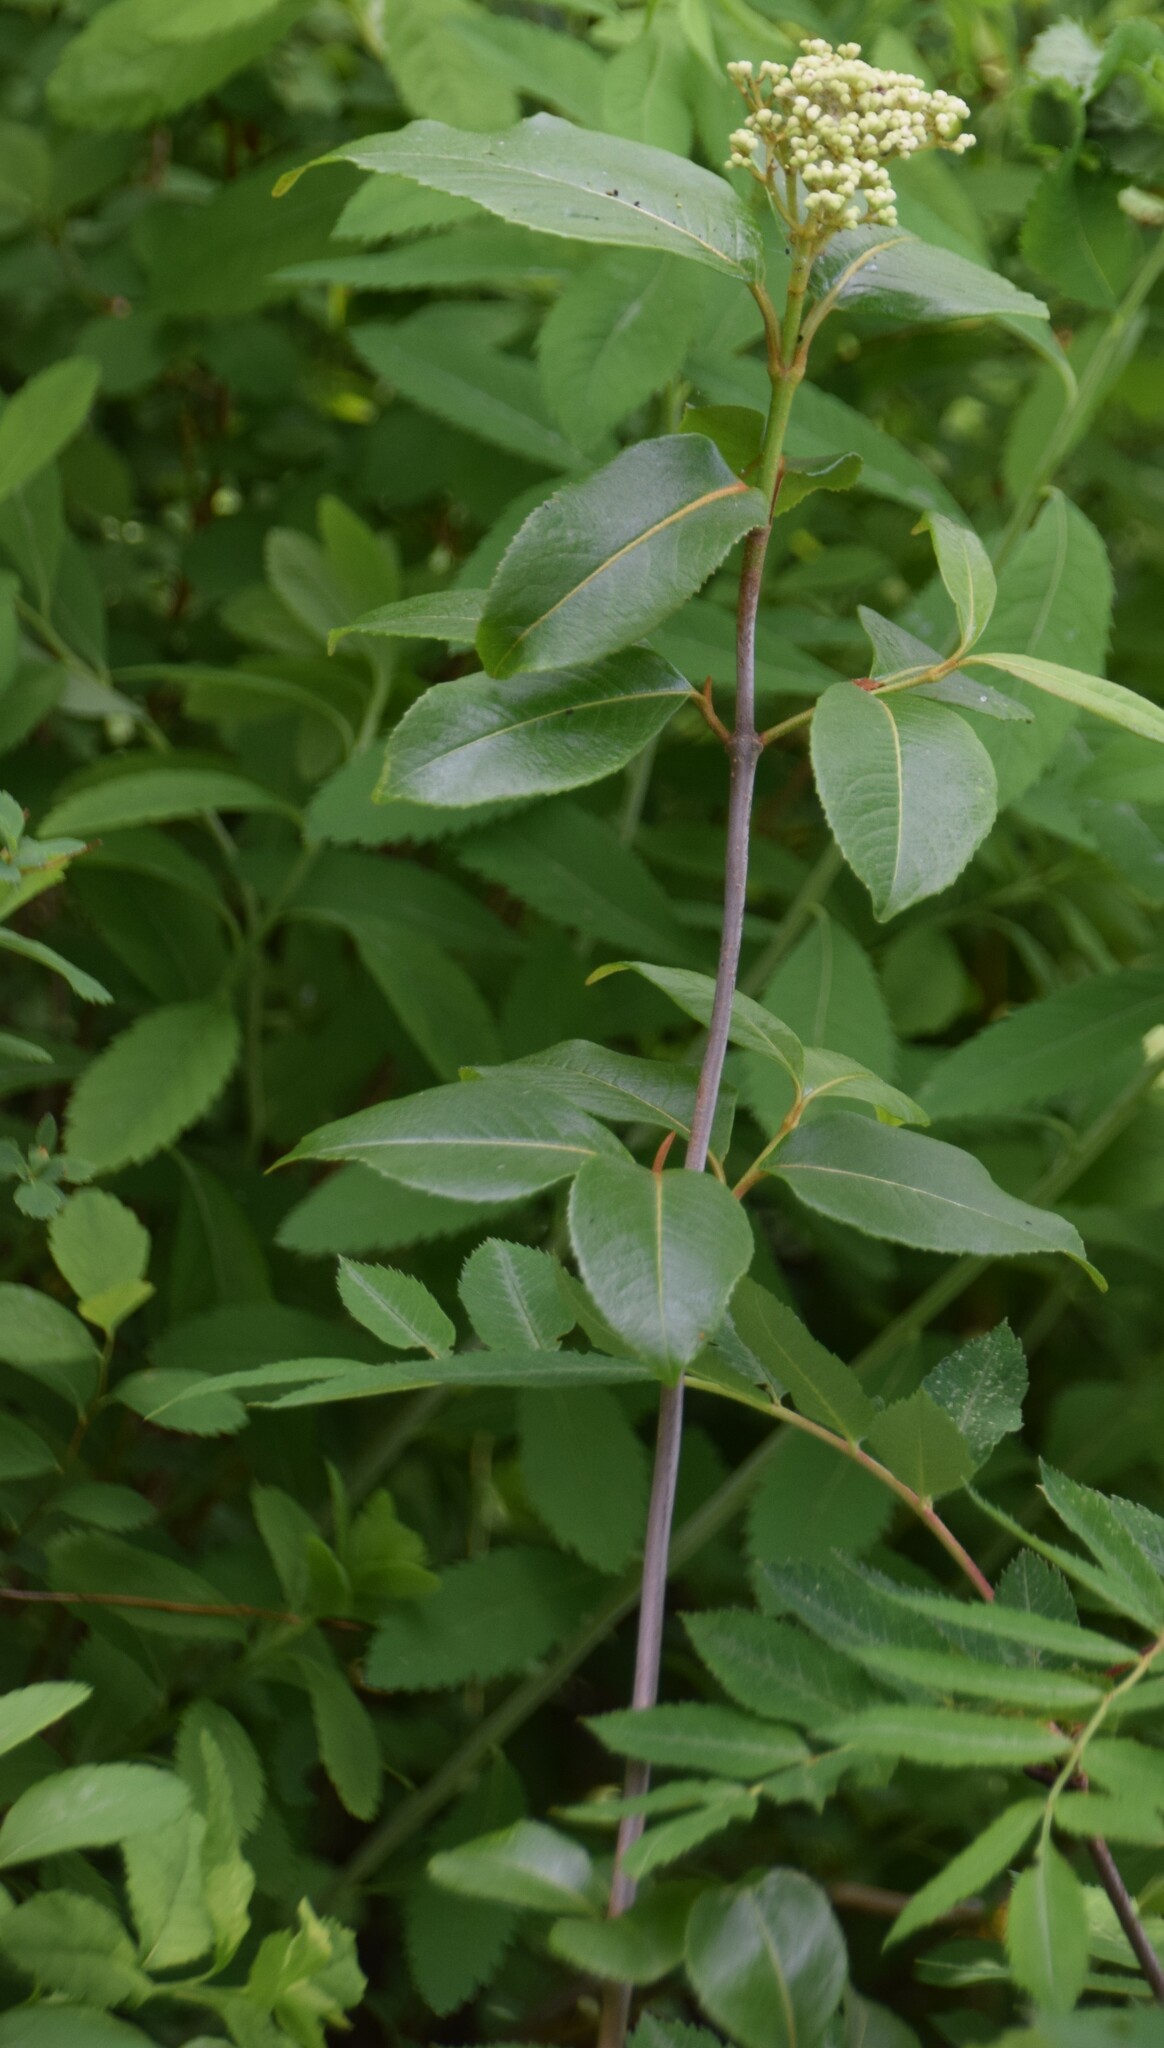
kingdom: Plantae
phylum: Tracheophyta
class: Magnoliopsida
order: Dipsacales
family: Viburnaceae
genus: Viburnum
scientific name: Viburnum cassinoides
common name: Swamp haw
